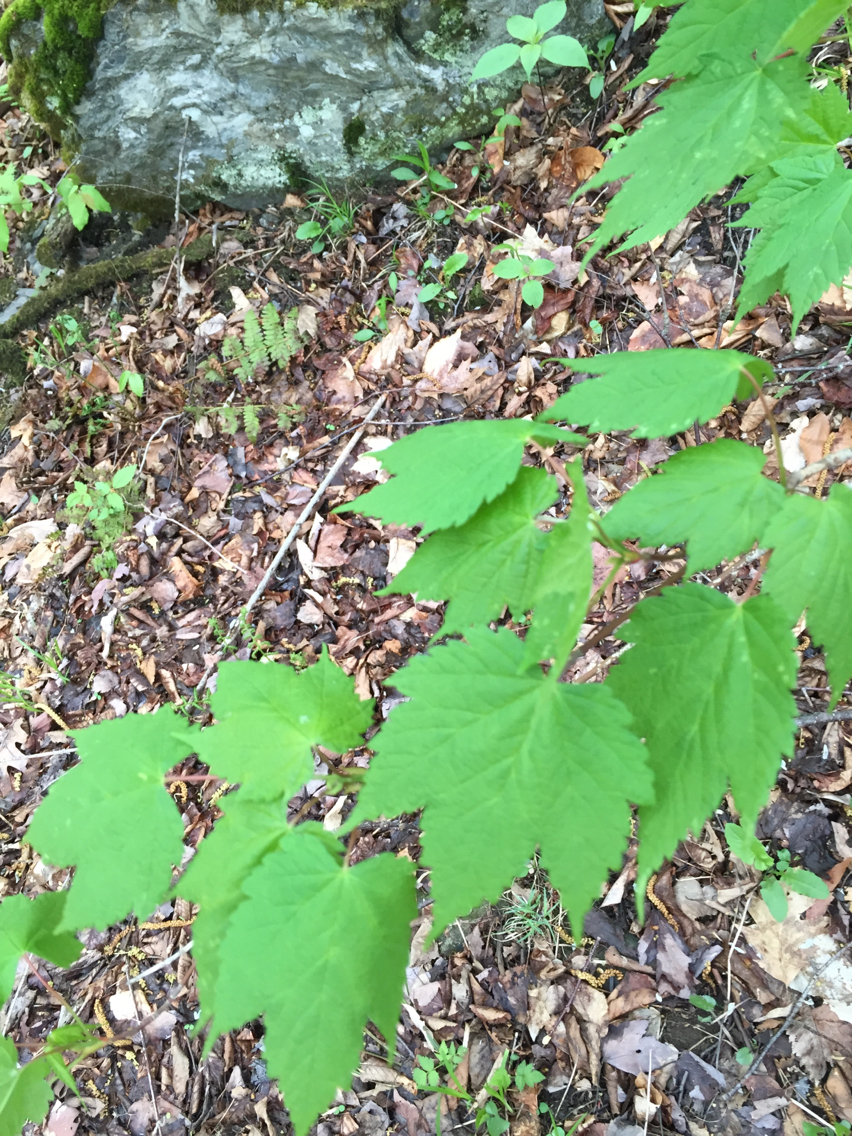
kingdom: Plantae
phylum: Tracheophyta
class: Magnoliopsida
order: Sapindales
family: Sapindaceae
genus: Acer
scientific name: Acer spicatum
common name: Mountain maple
